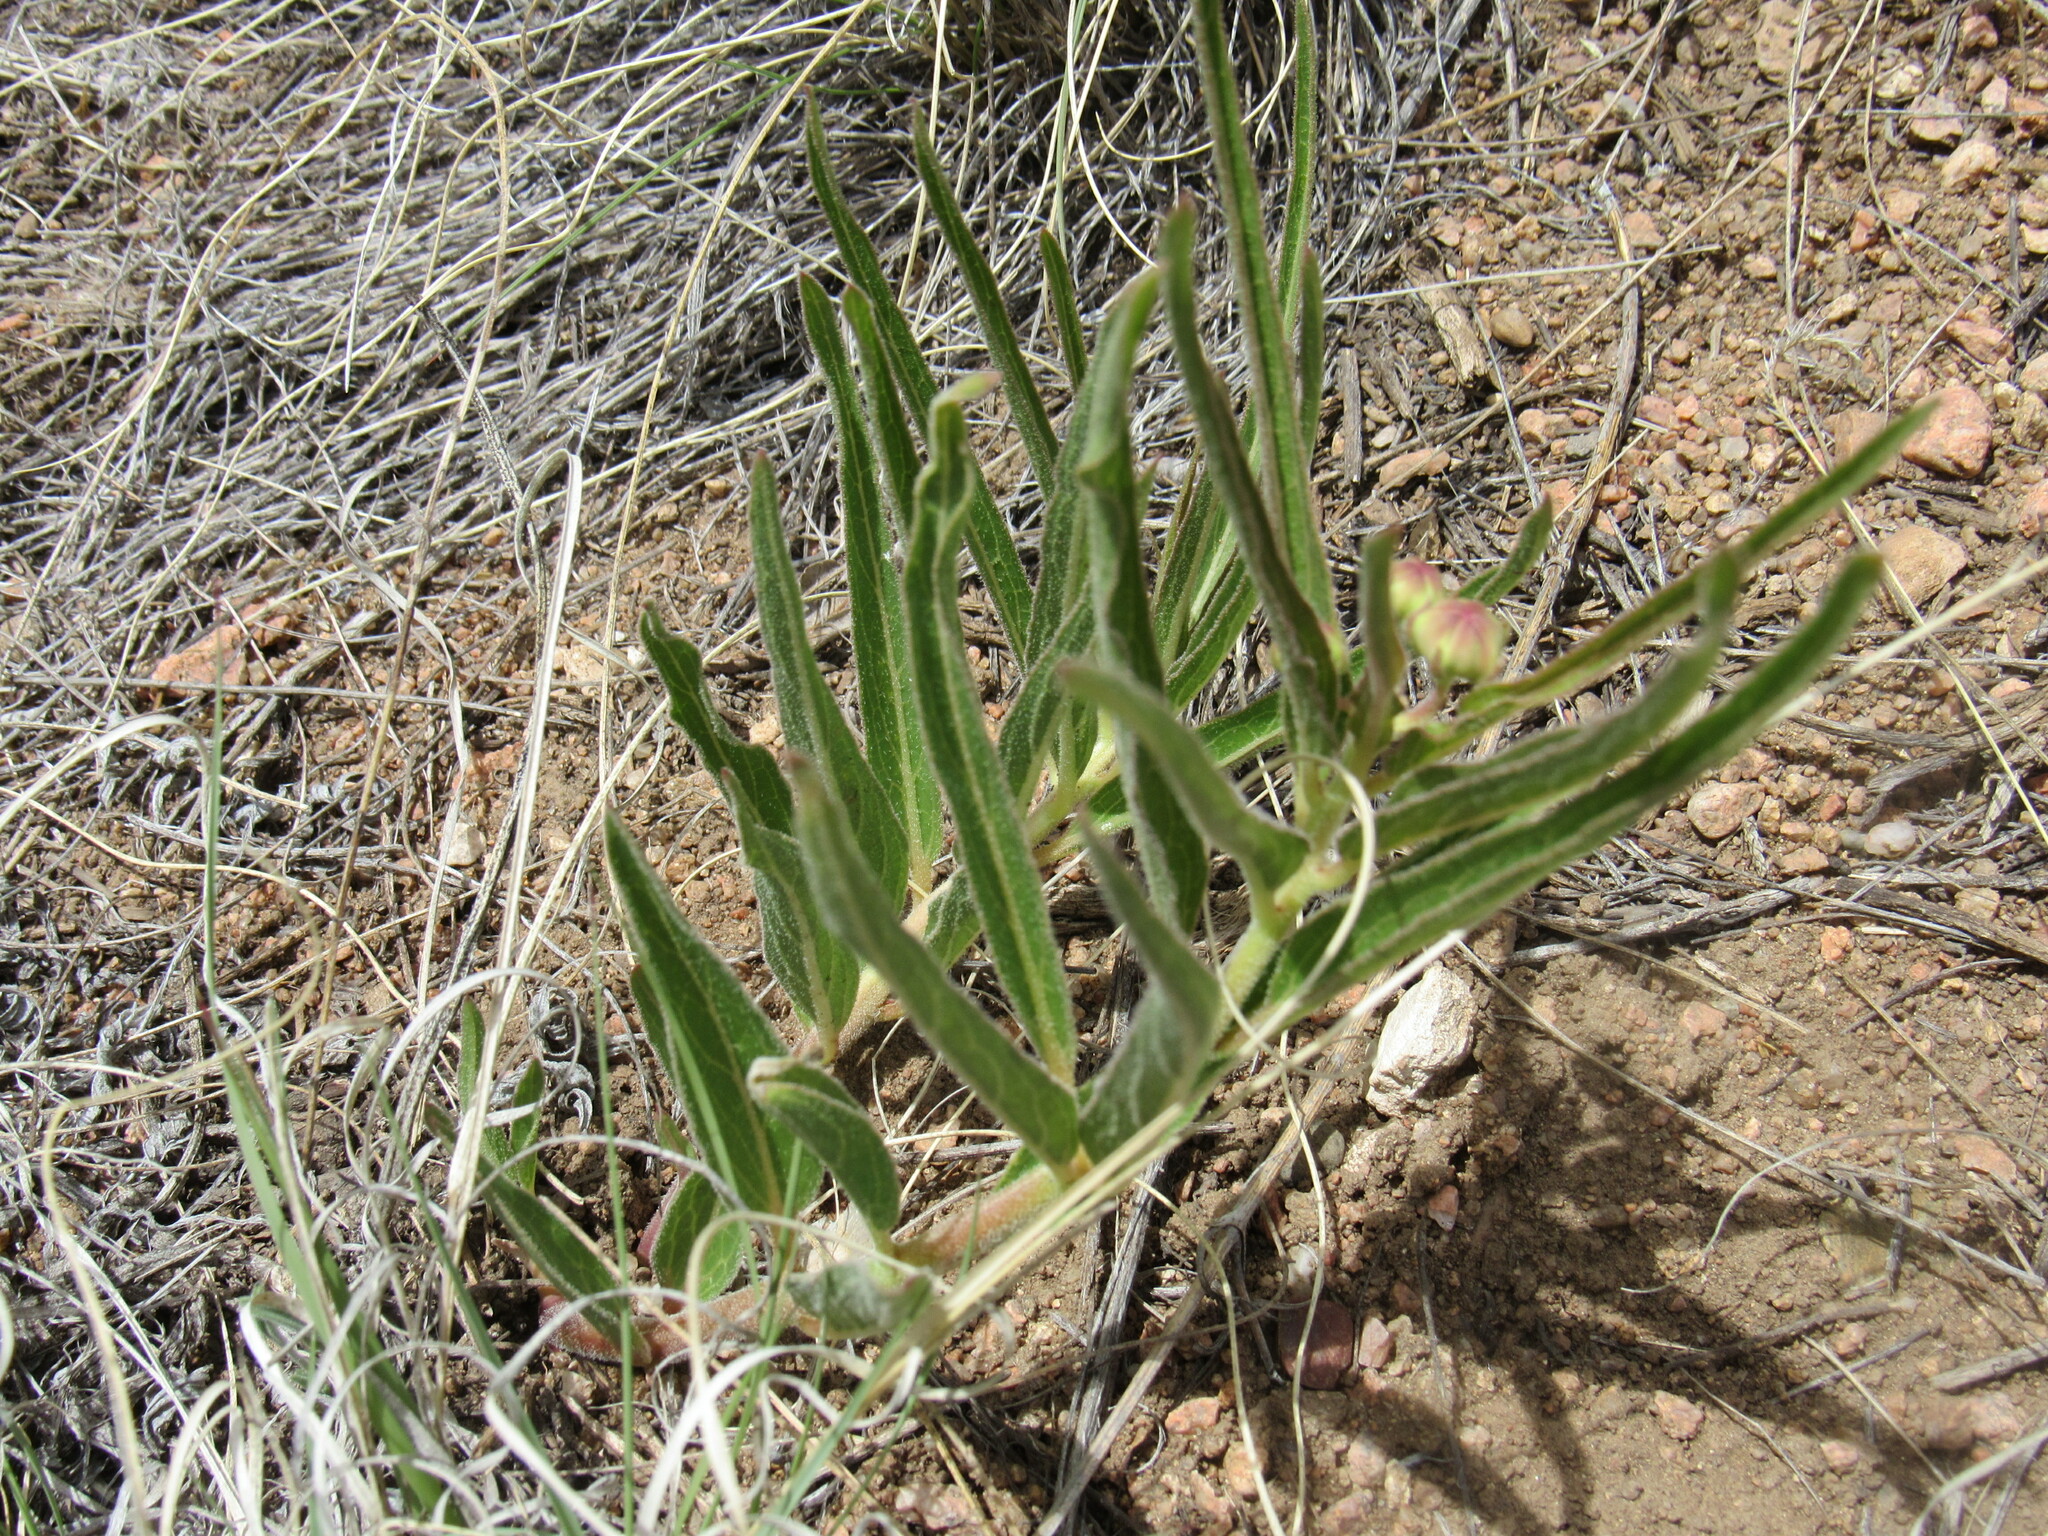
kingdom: Plantae
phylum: Tracheophyta
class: Magnoliopsida
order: Gentianales
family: Apocynaceae
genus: Asclepias
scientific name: Asclepias asperula
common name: Antelope horns
